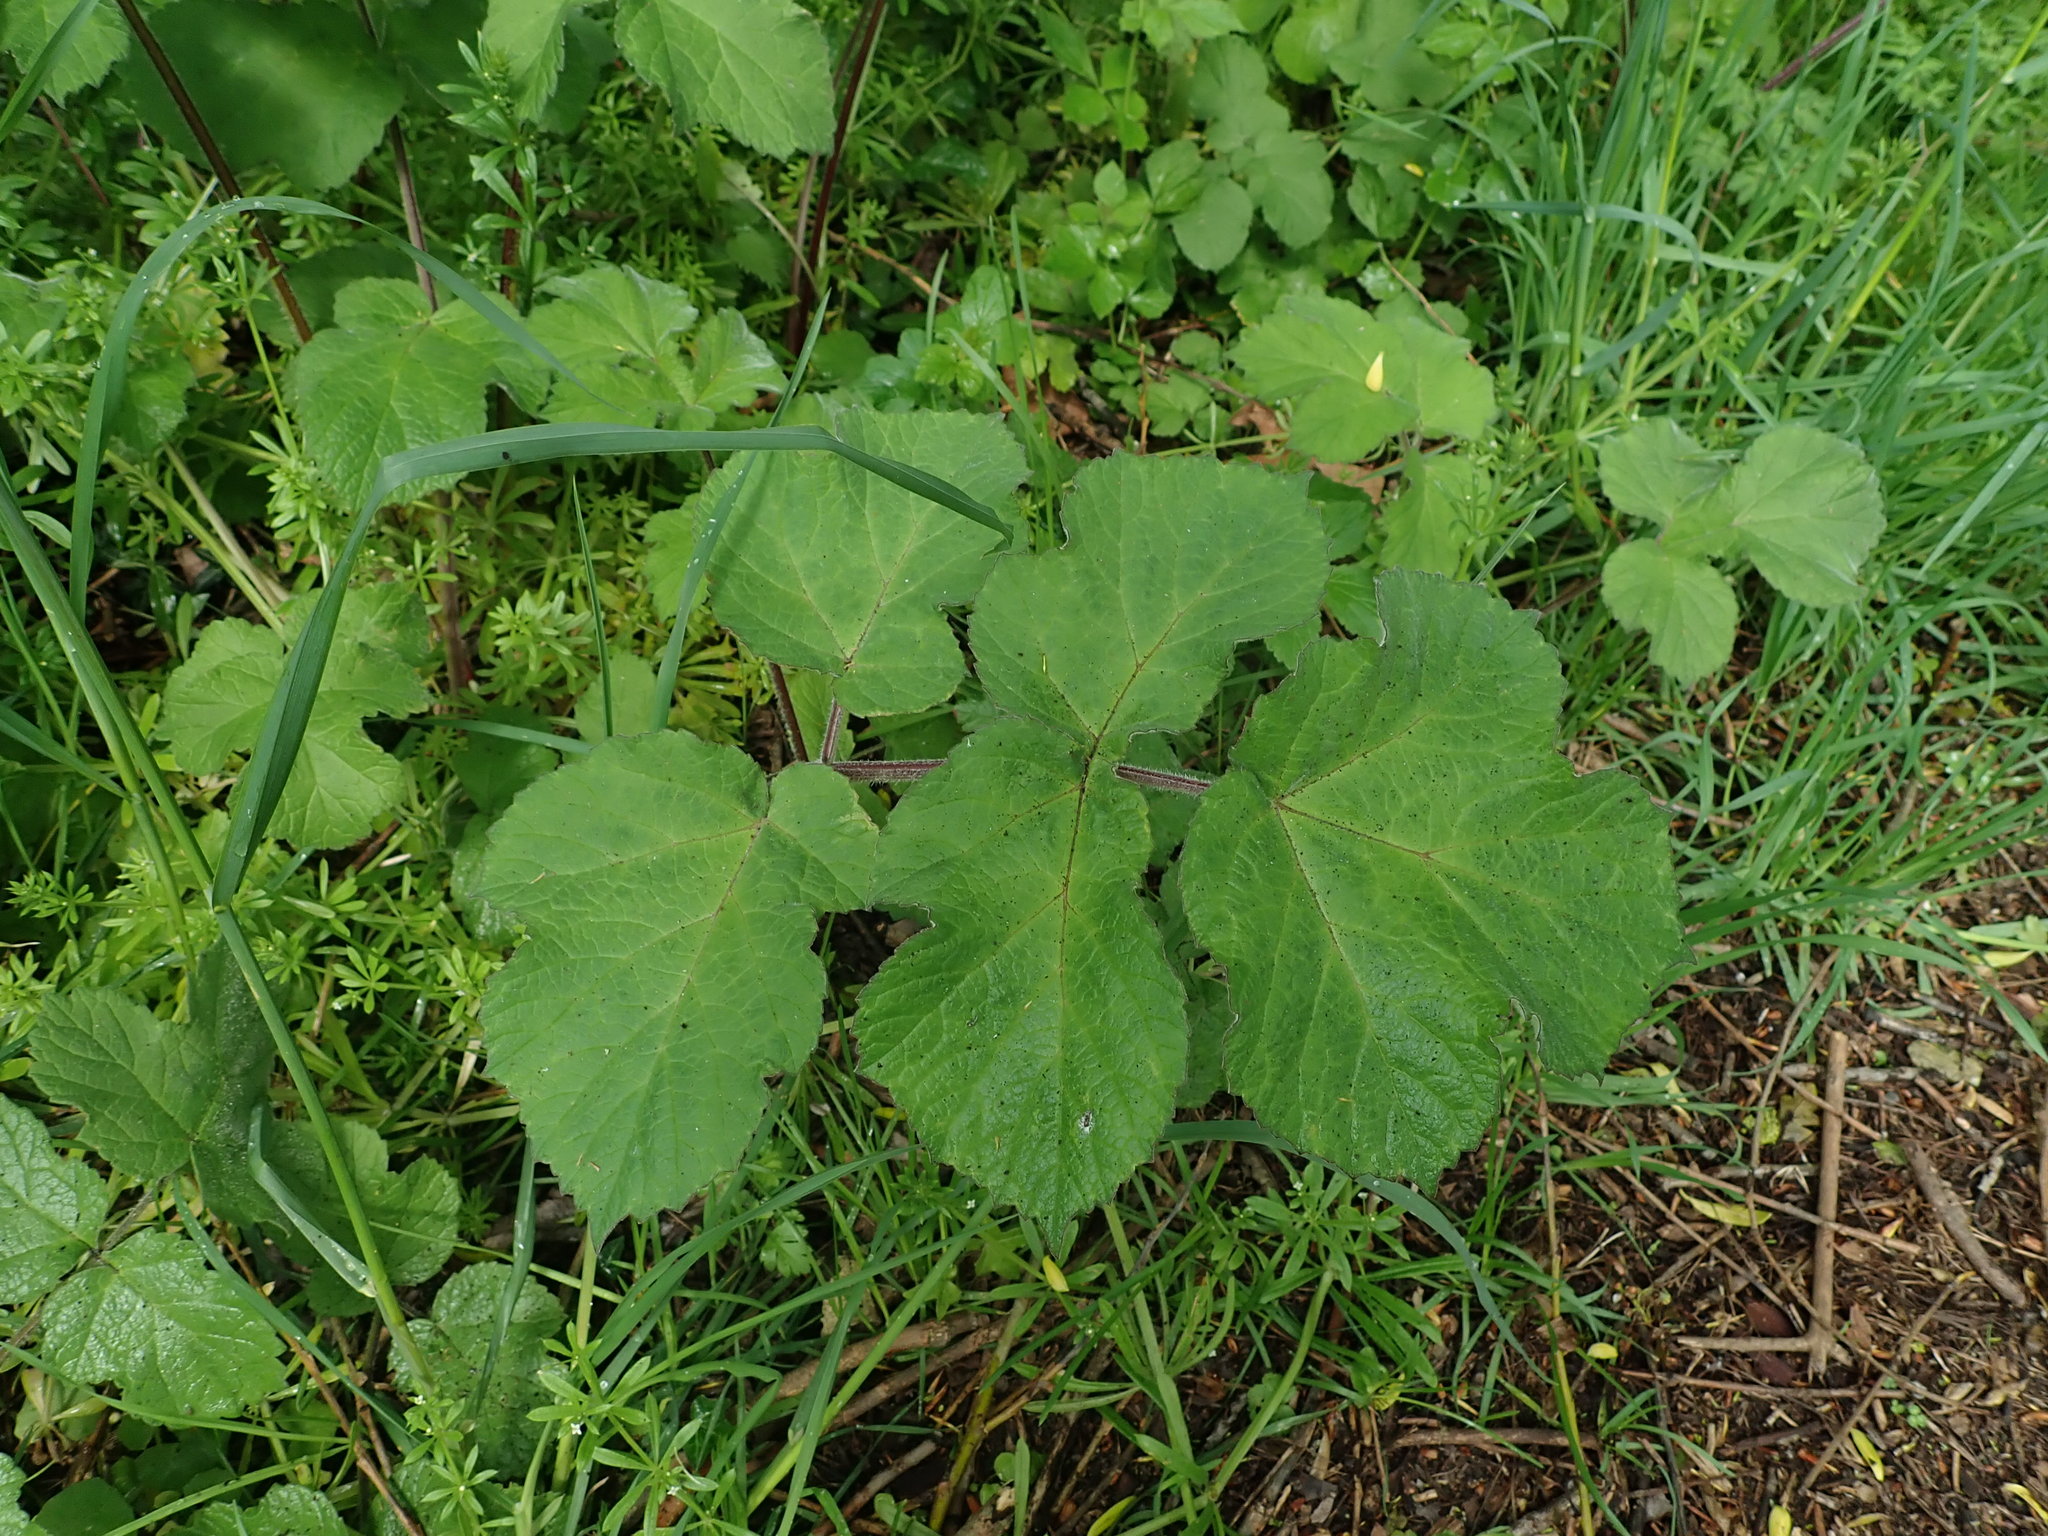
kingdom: Plantae
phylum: Tracheophyta
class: Magnoliopsida
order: Apiales
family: Apiaceae
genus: Heracleum
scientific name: Heracleum sphondylium
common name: Hogweed
